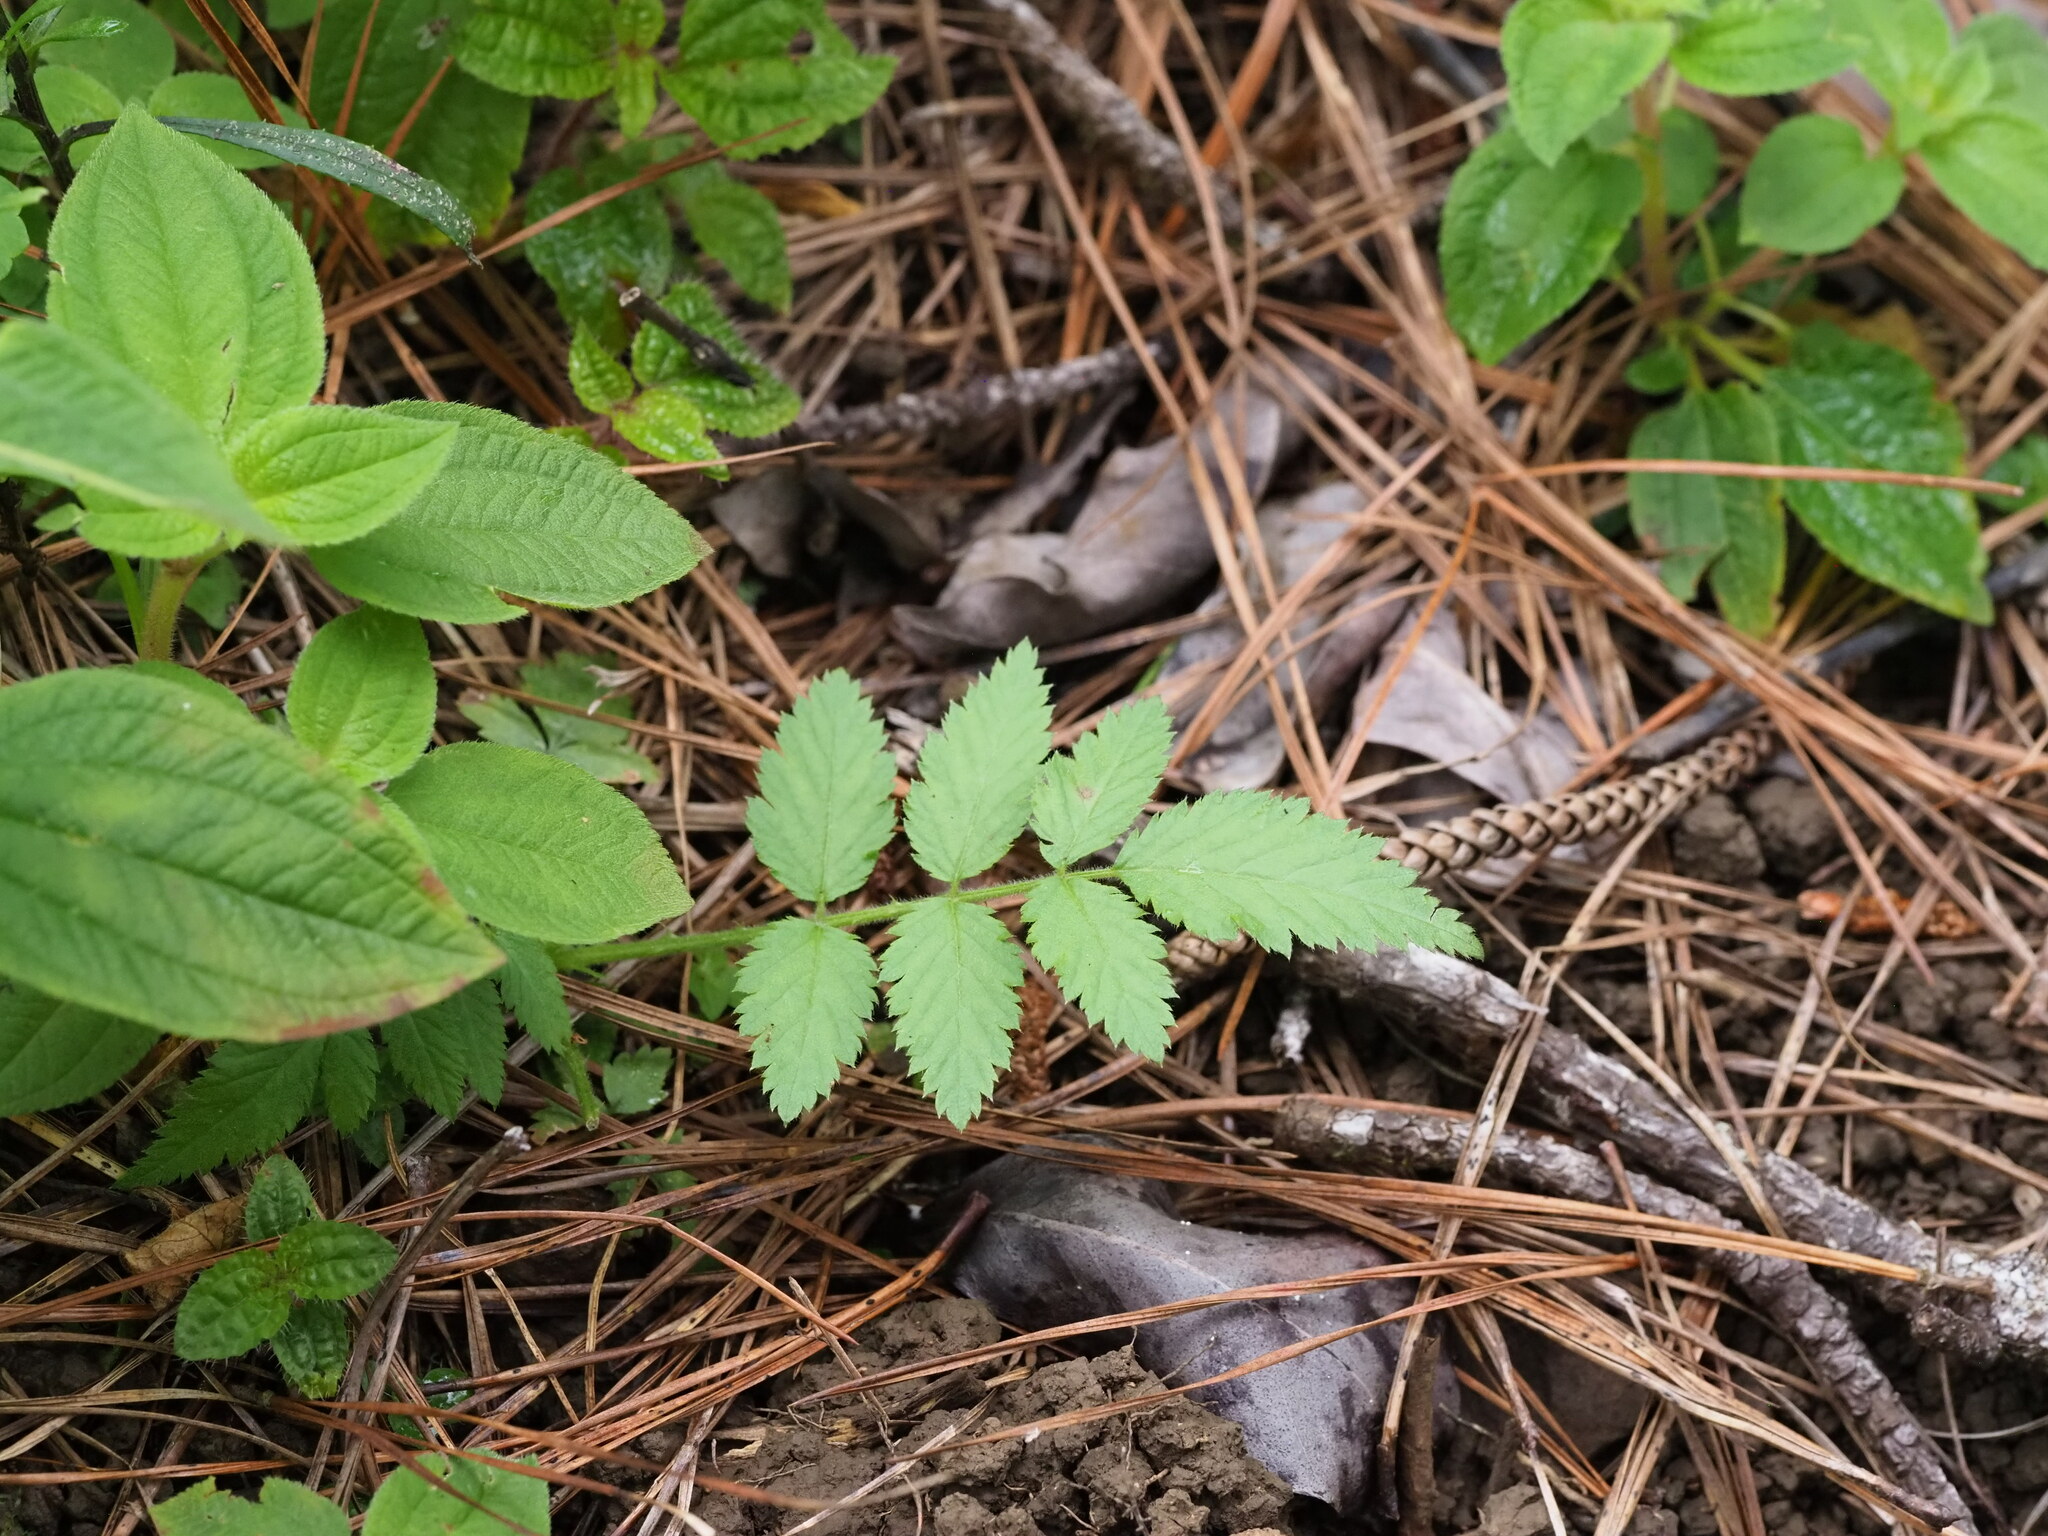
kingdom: Plantae
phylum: Tracheophyta
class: Magnoliopsida
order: Rosales
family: Rosaceae
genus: Rubus
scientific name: Rubus rosifolius
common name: Roseleaf raspberry
